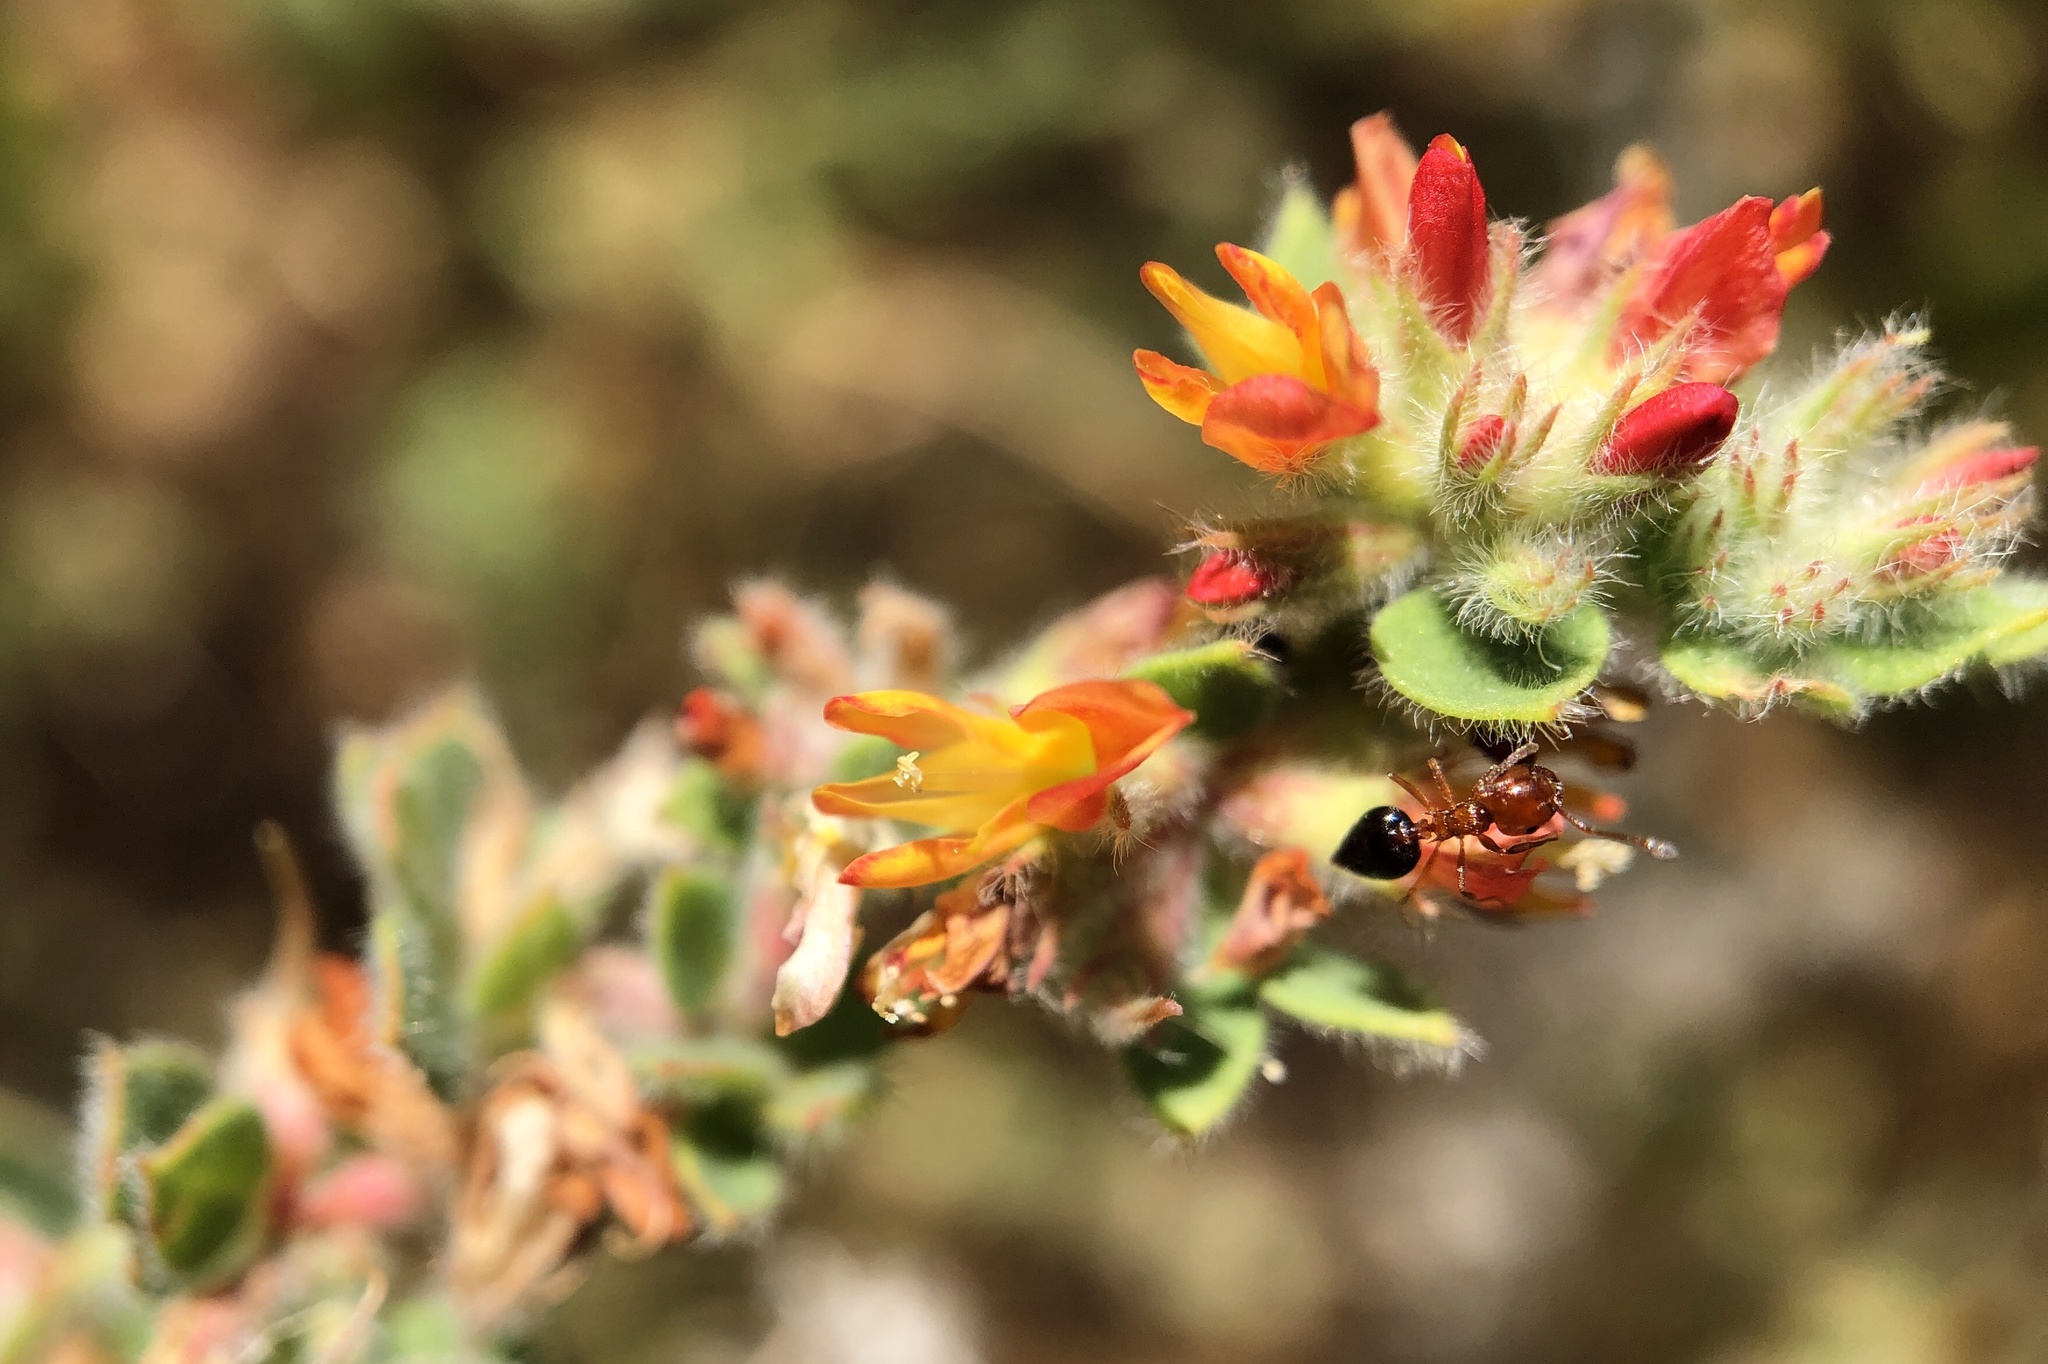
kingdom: Plantae
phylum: Tracheophyta
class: Magnoliopsida
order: Fabales
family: Fabaceae
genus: Acmispon
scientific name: Acmispon tomentosus
